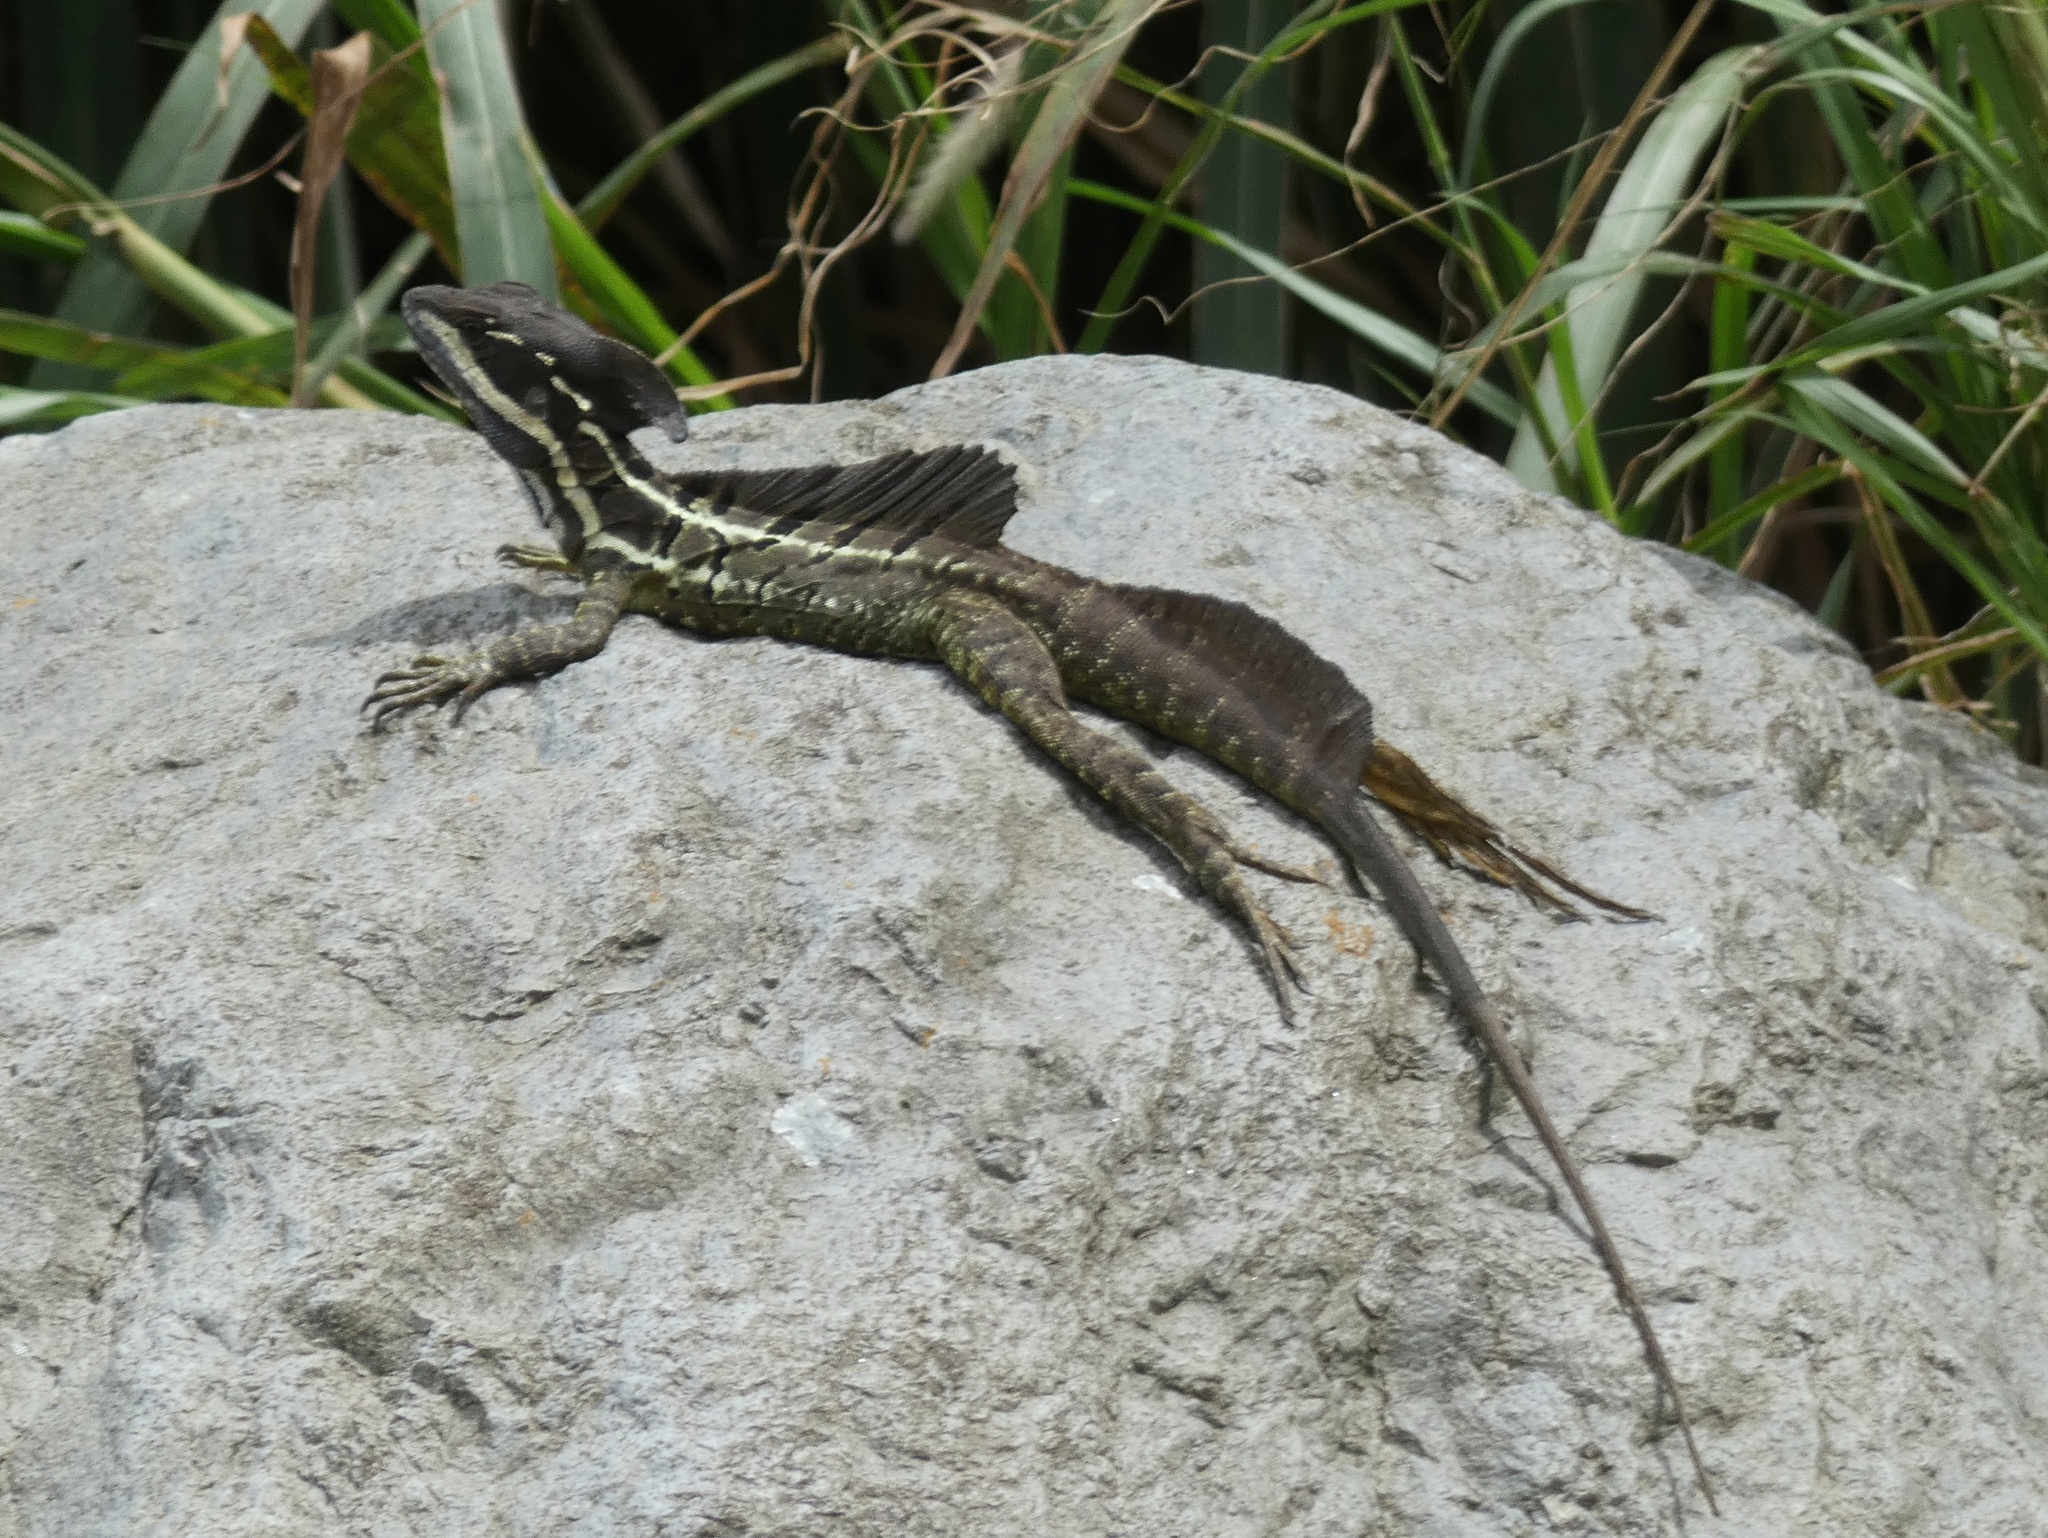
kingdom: Animalia
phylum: Chordata
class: Squamata
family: Corytophanidae
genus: Basiliscus
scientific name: Basiliscus basiliscus
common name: Common basilisk
